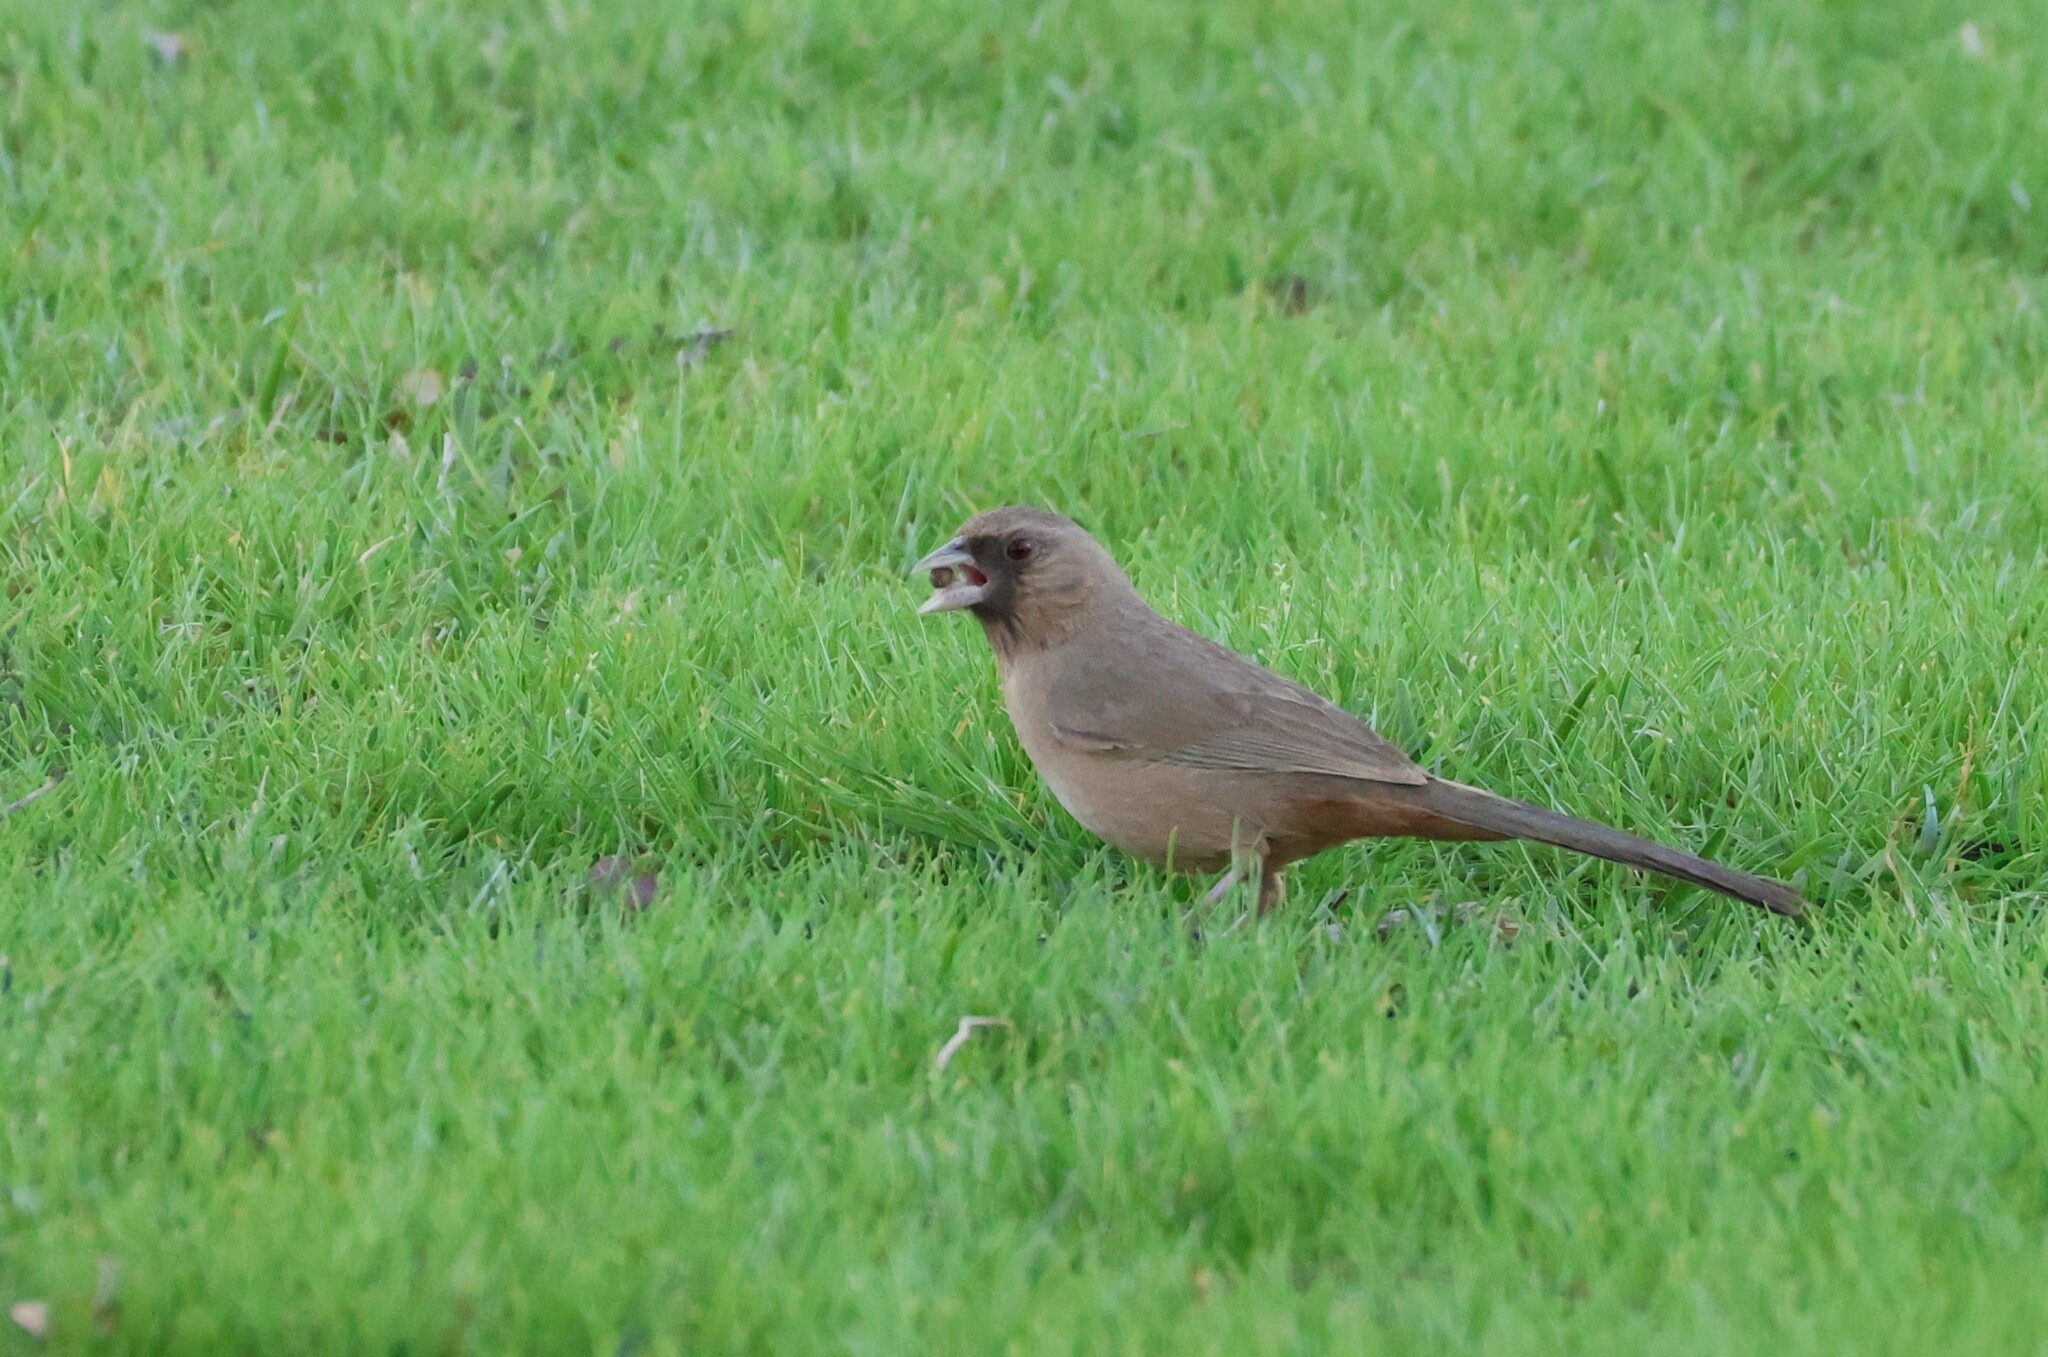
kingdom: Animalia
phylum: Chordata
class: Aves
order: Passeriformes
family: Passerellidae
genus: Melozone
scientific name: Melozone aberti
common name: Abert's towhee
